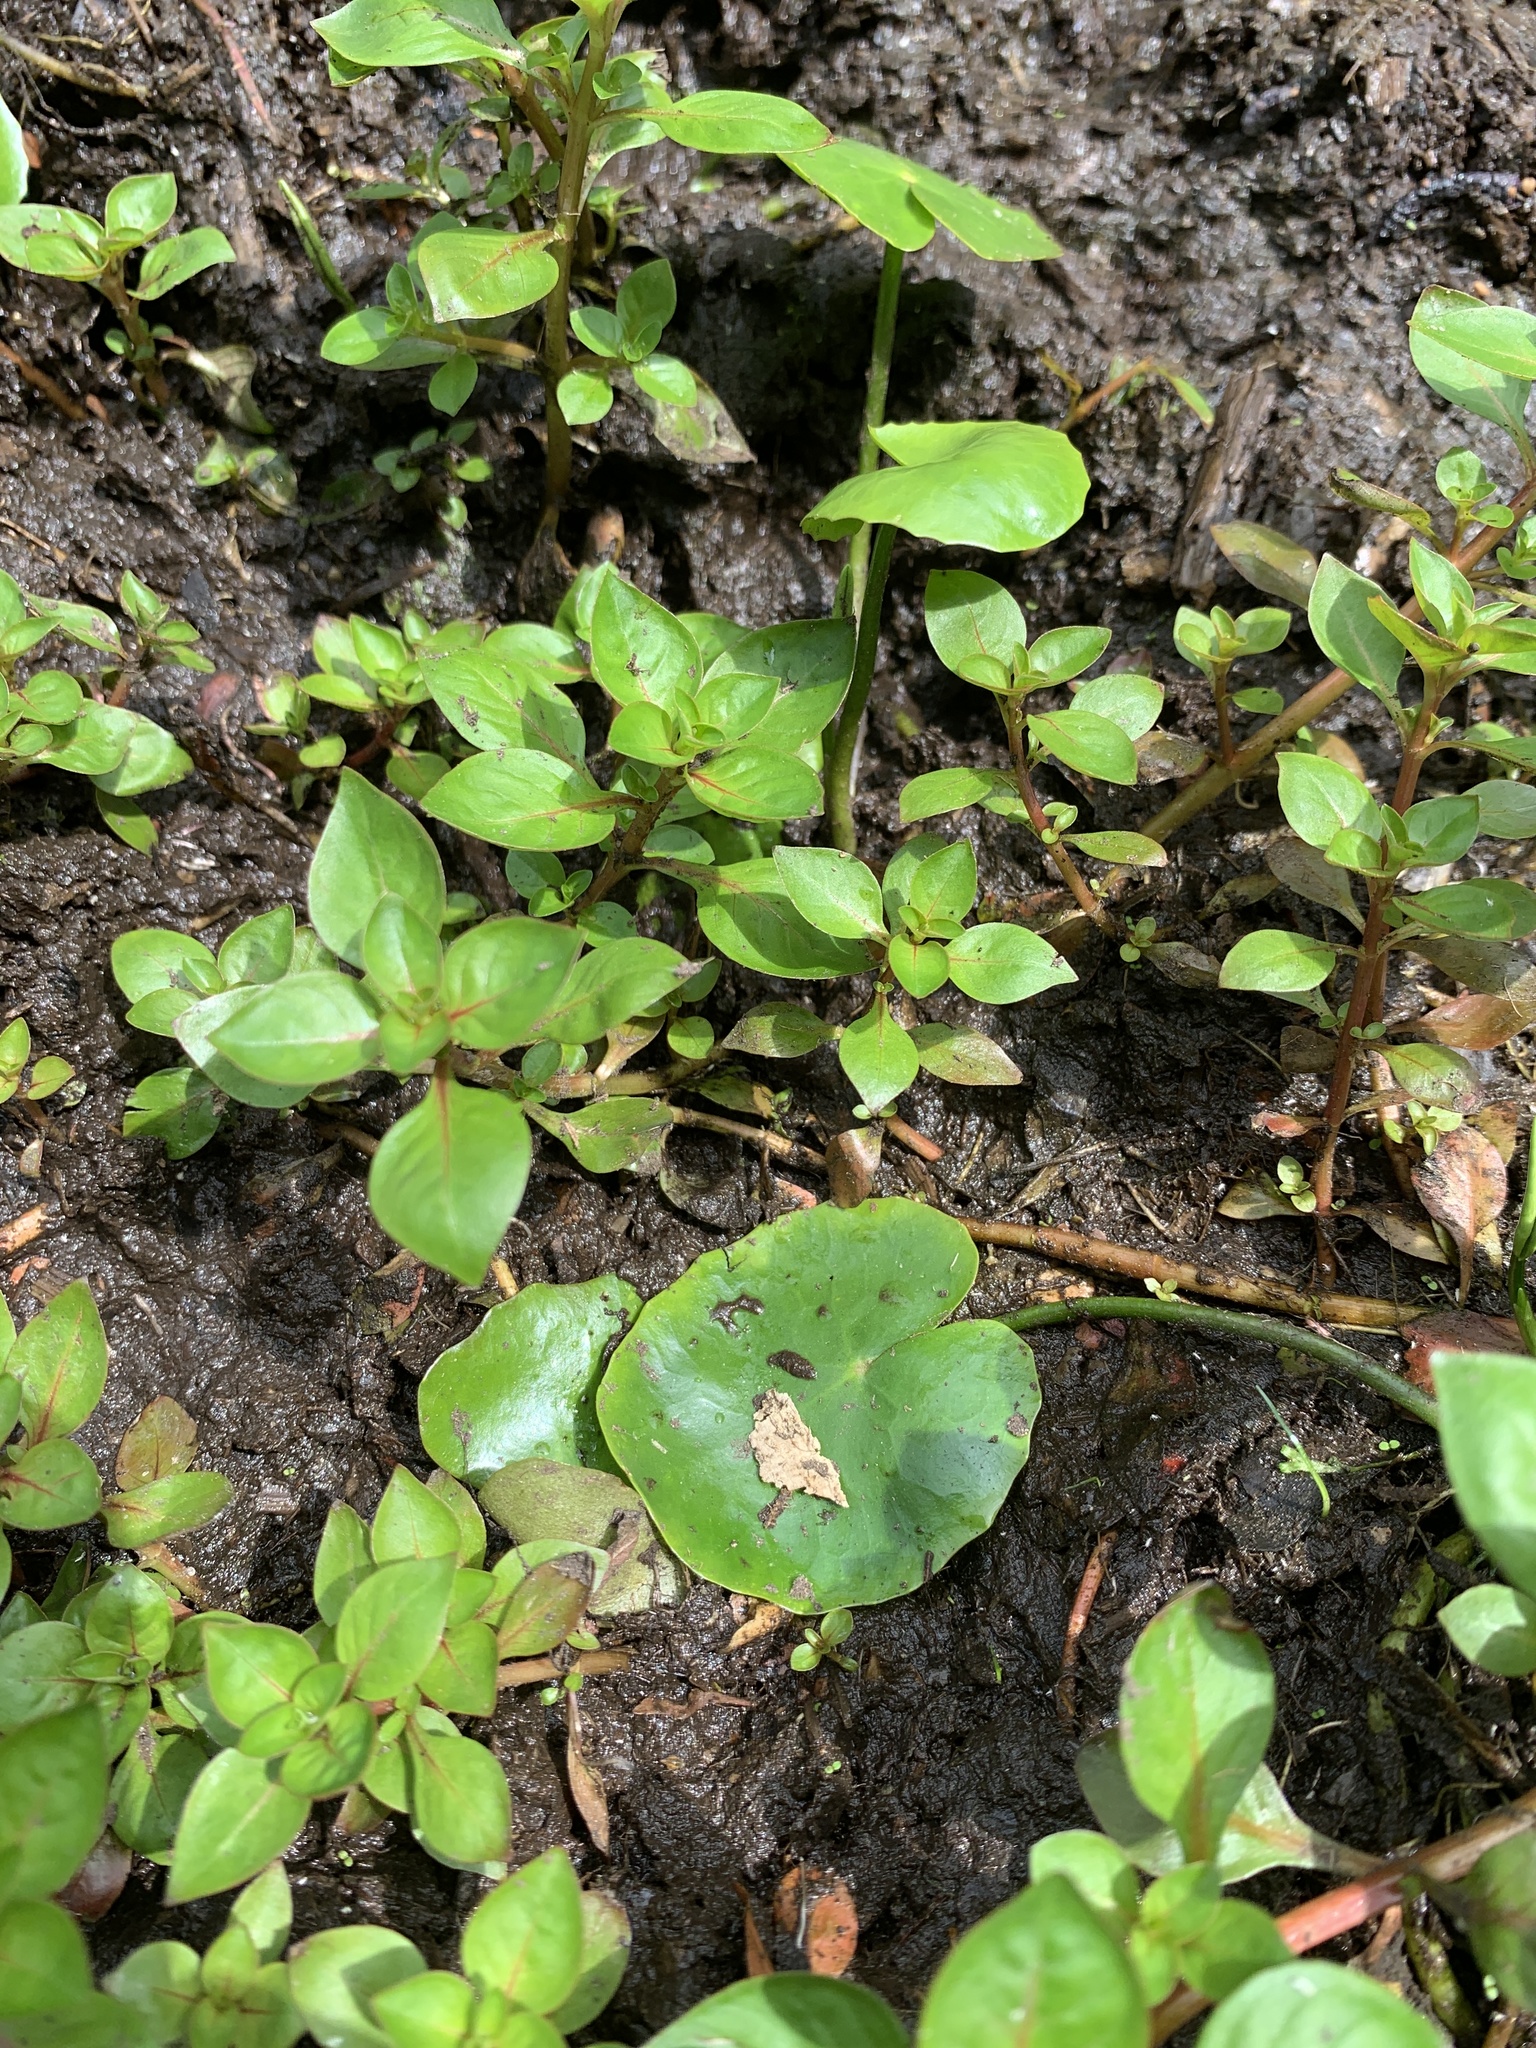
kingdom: Plantae
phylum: Tracheophyta
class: Magnoliopsida
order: Asterales
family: Menyanthaceae
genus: Nymphoides
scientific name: Nymphoides peltata
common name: Fringed water-lily
